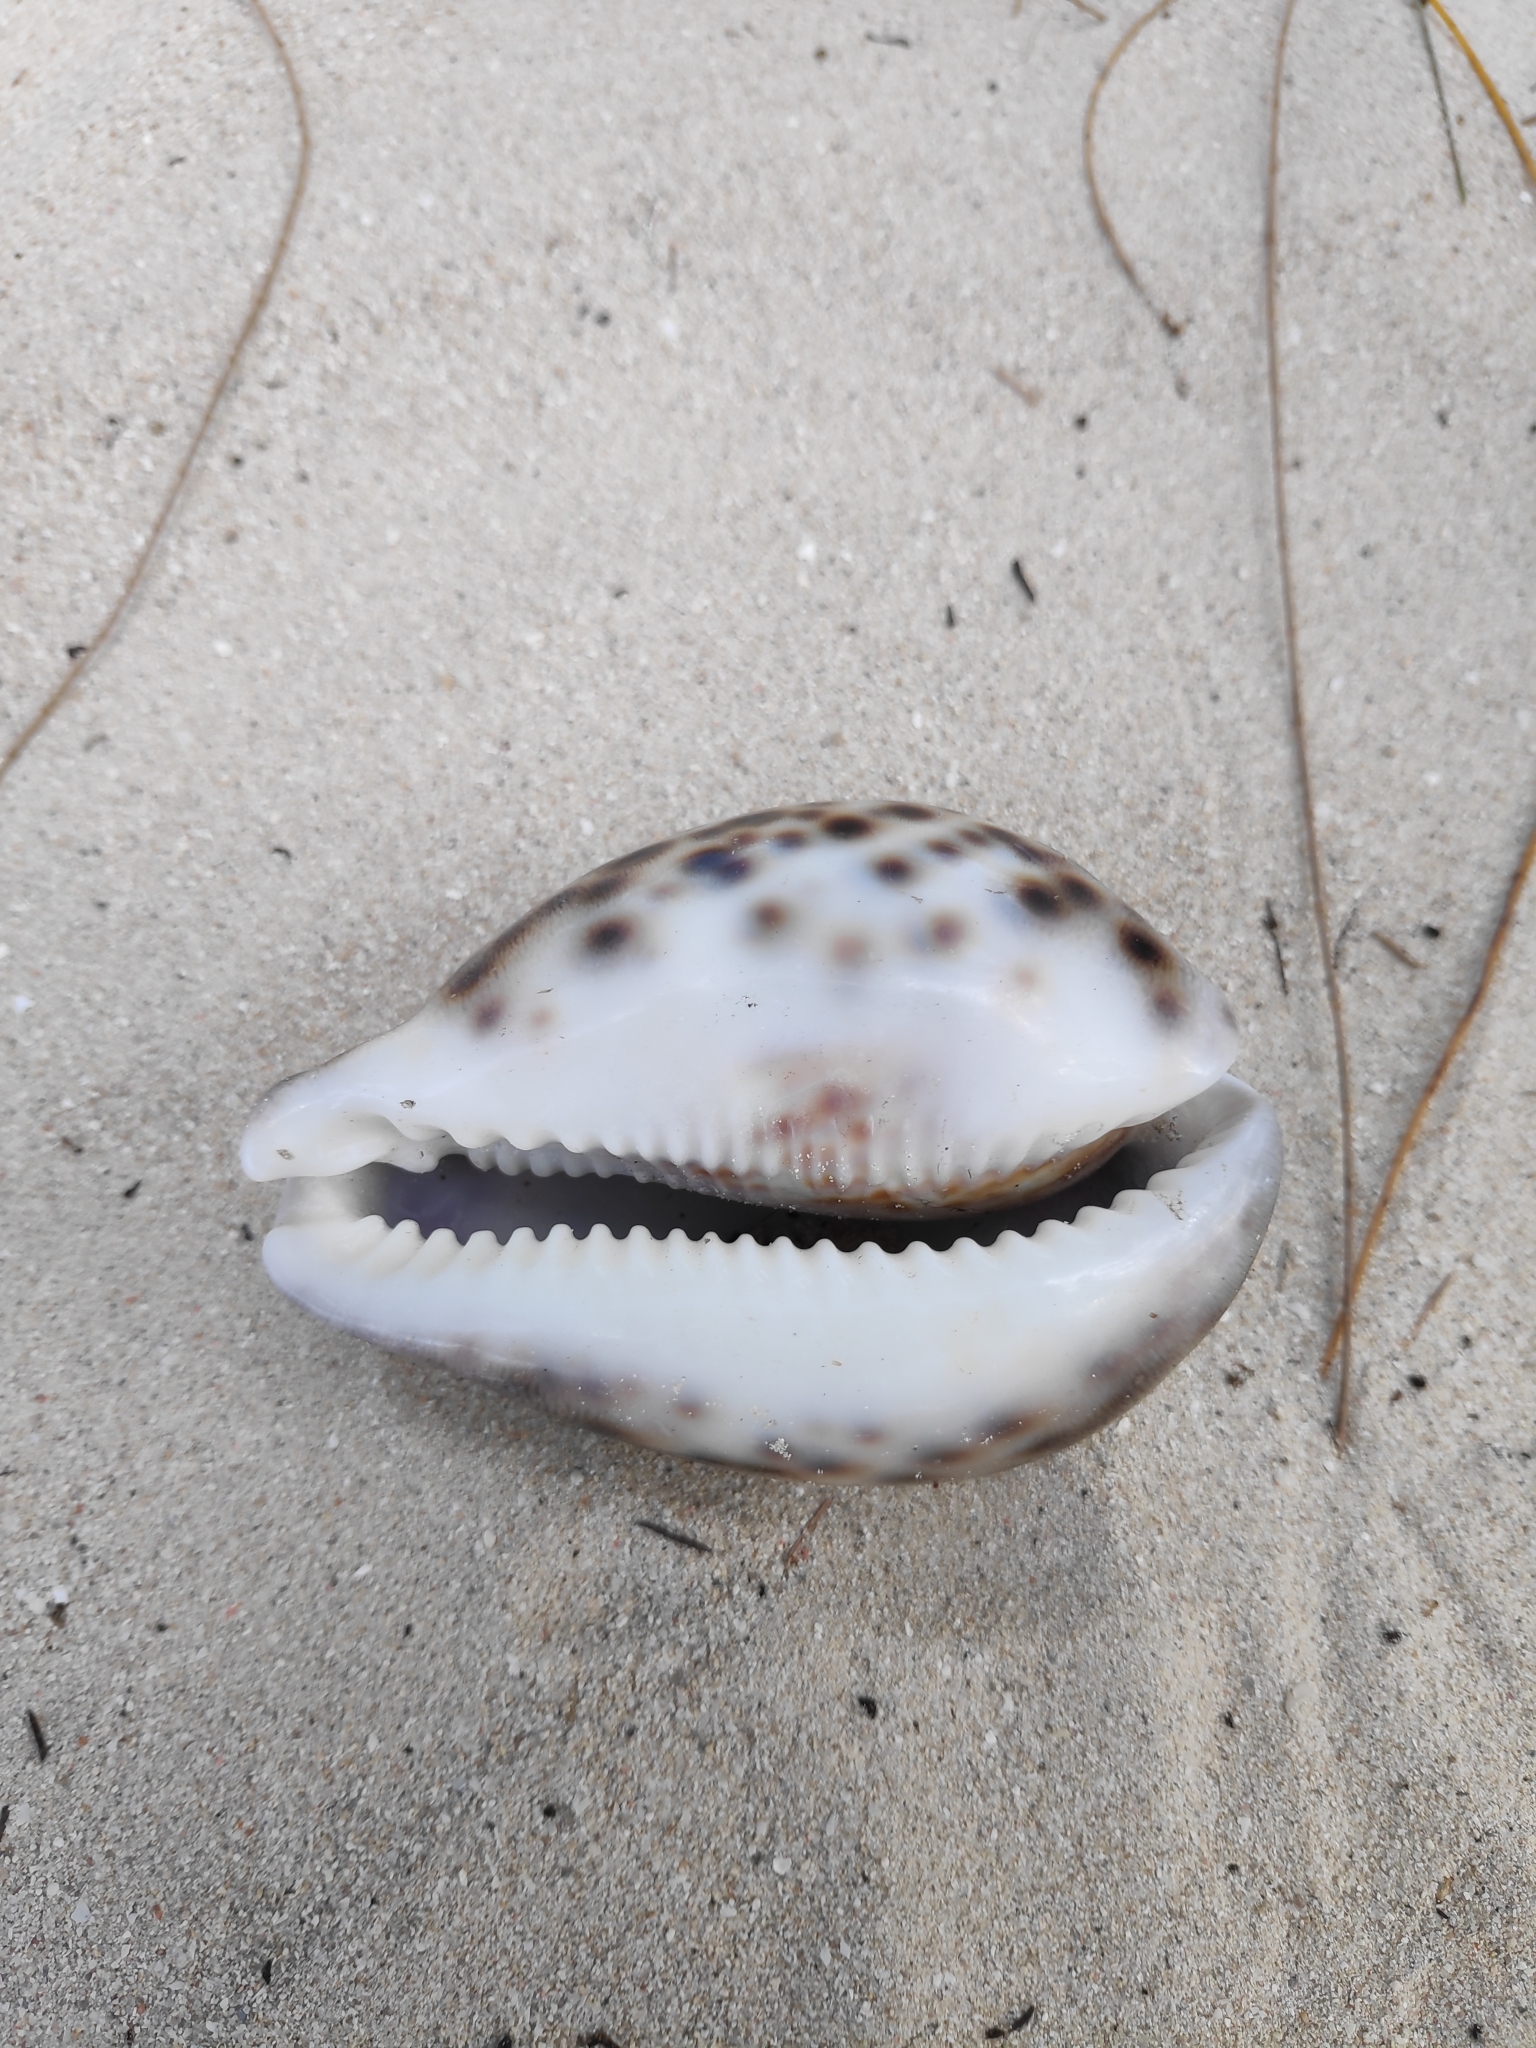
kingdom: Animalia
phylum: Mollusca
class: Gastropoda
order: Littorinimorpha
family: Cypraeidae
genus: Cypraea
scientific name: Cypraea tigris
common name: Tiger cowrie
